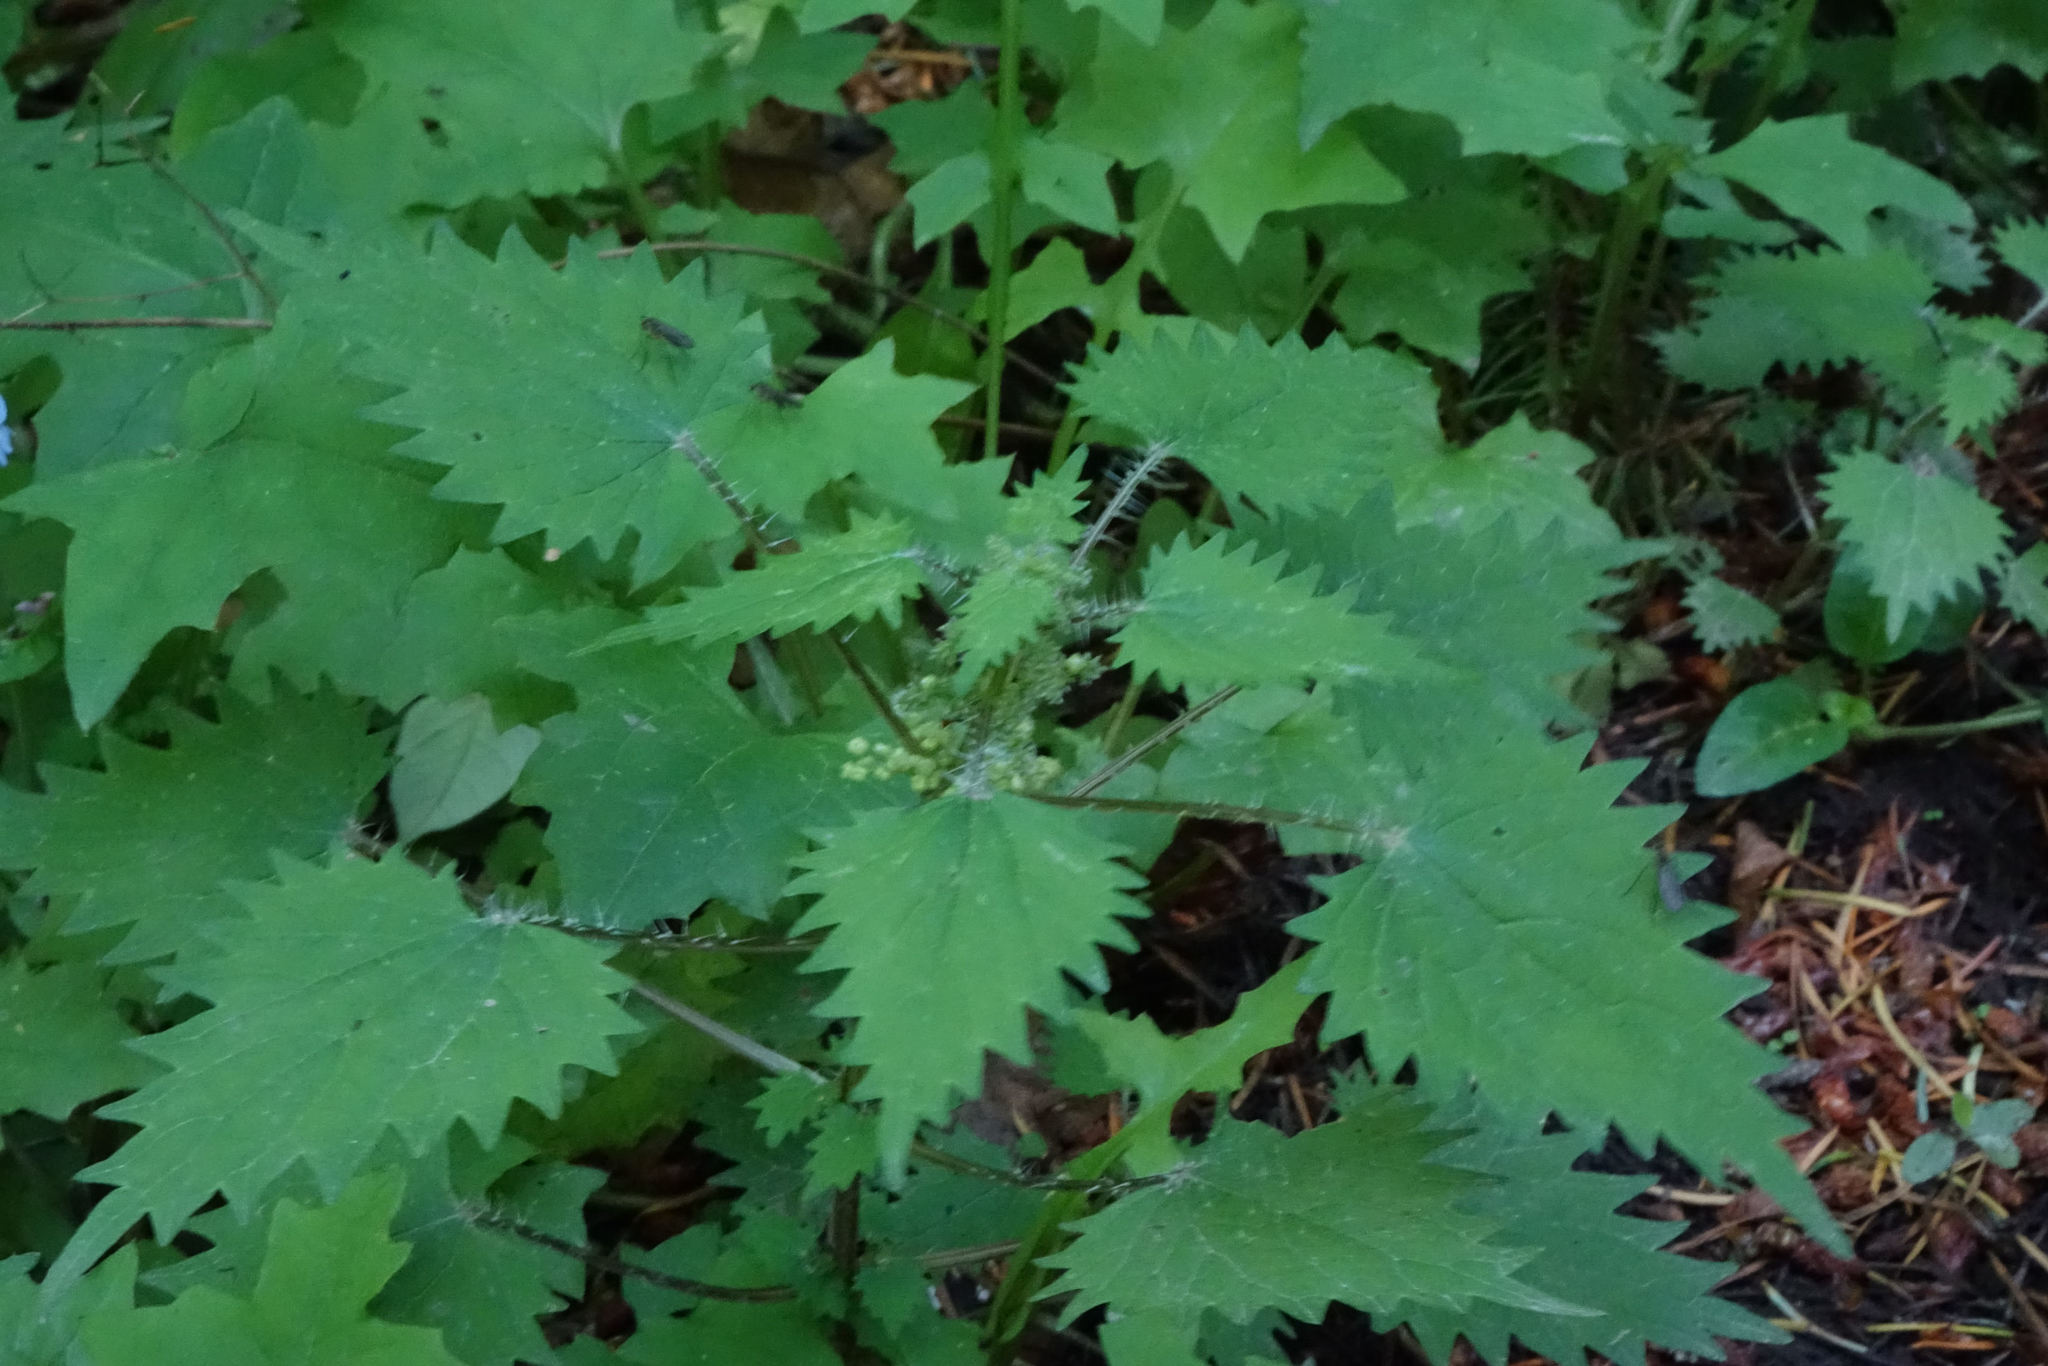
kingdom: Plantae
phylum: Tracheophyta
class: Magnoliopsida
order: Rosales
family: Urticaceae
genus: Urtica
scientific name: Urtica sykesii
